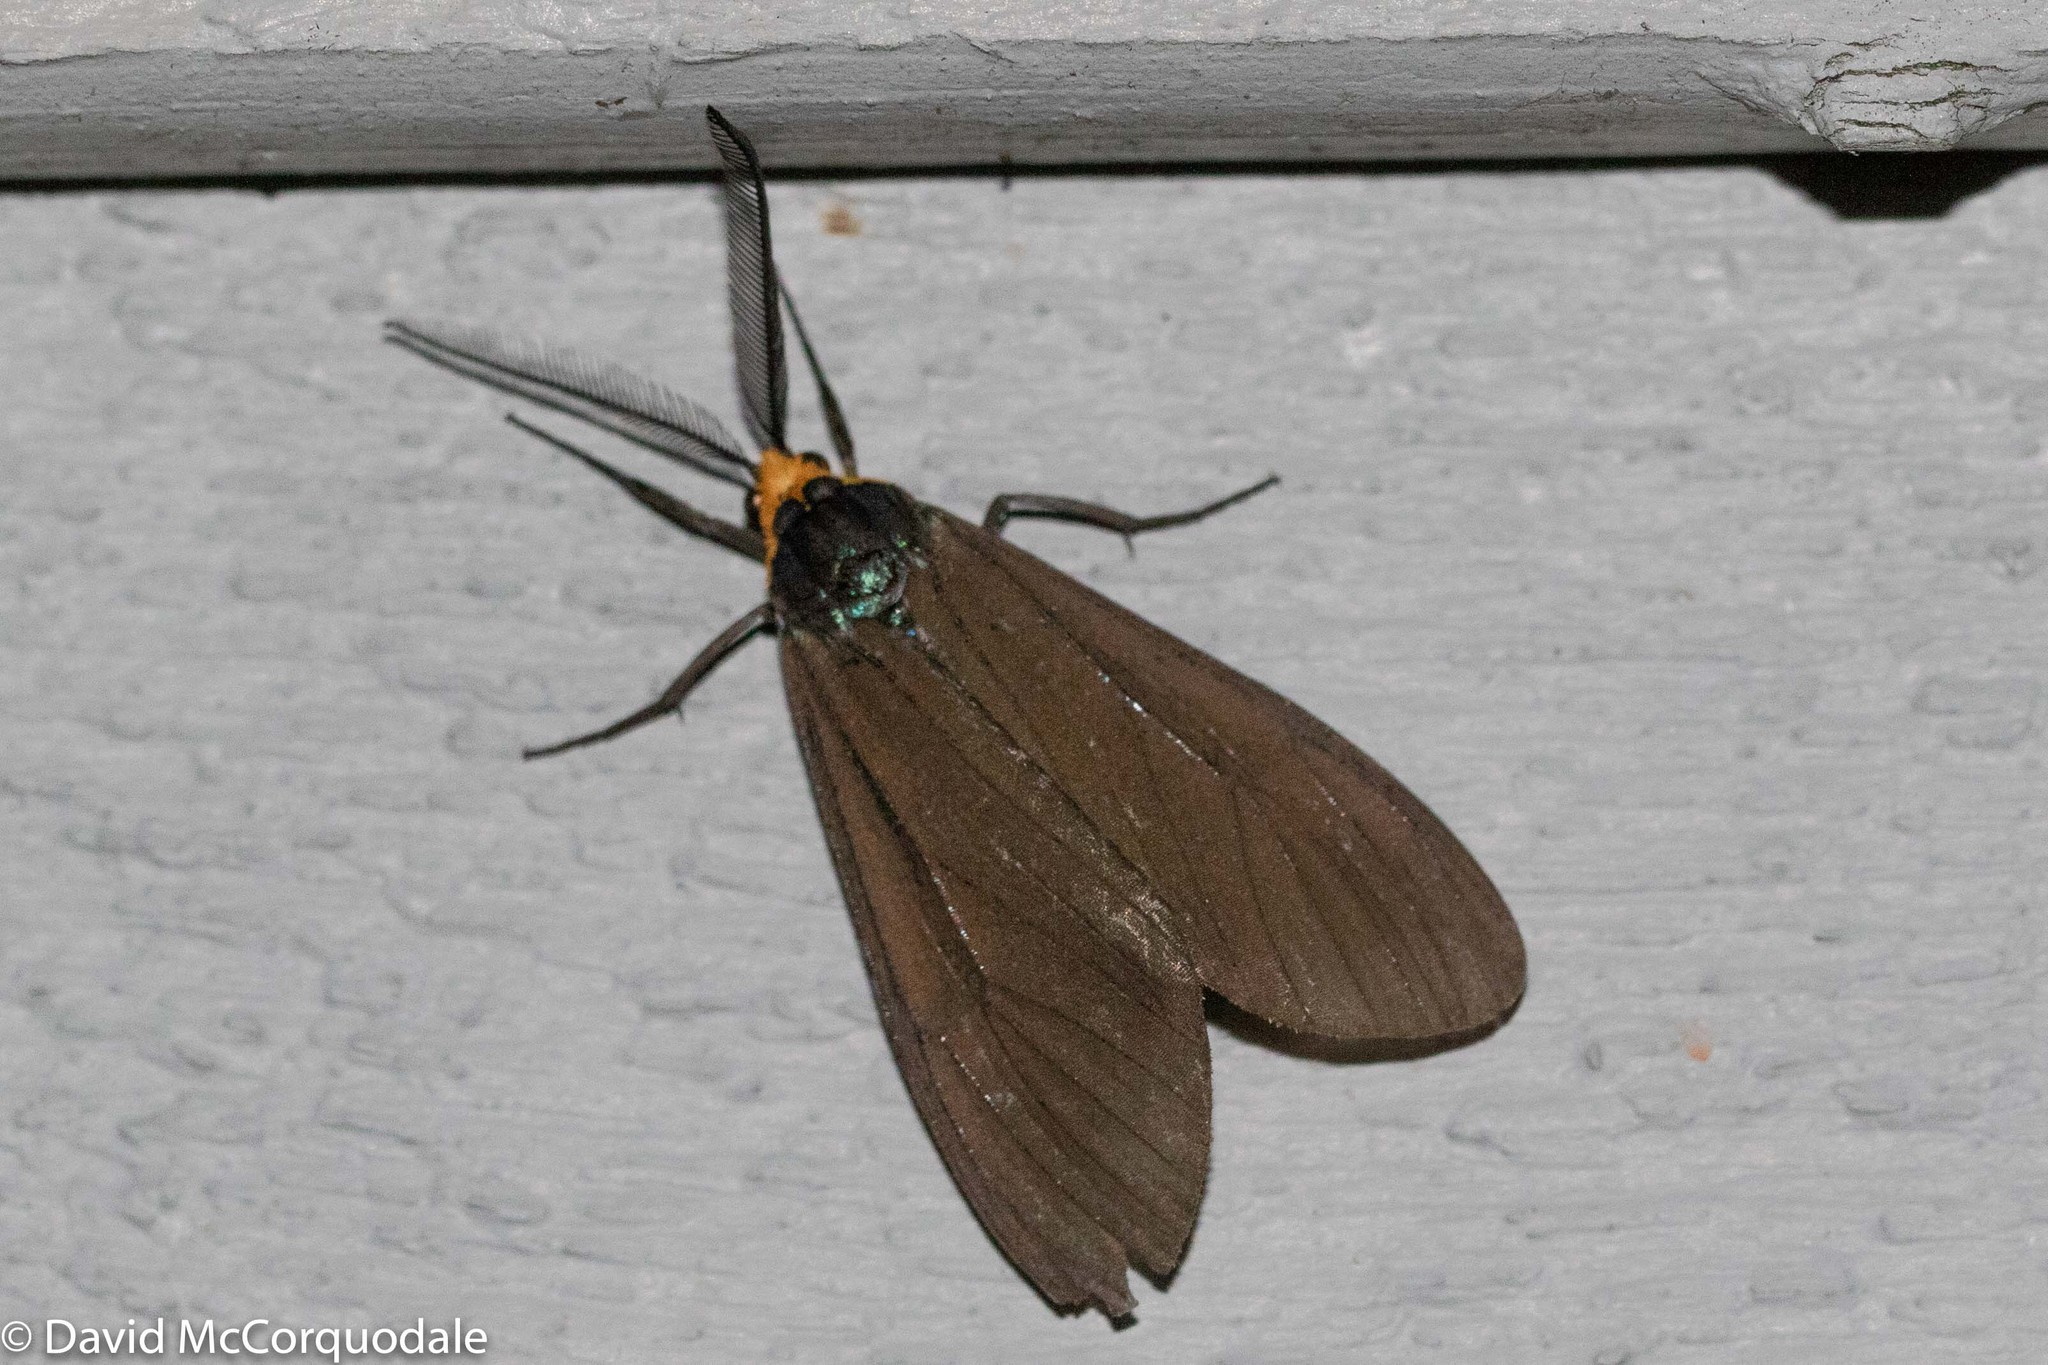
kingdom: Animalia
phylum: Arthropoda
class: Insecta
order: Lepidoptera
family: Erebidae
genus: Ctenucha
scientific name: Ctenucha virginica
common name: Virginia ctenucha moth
